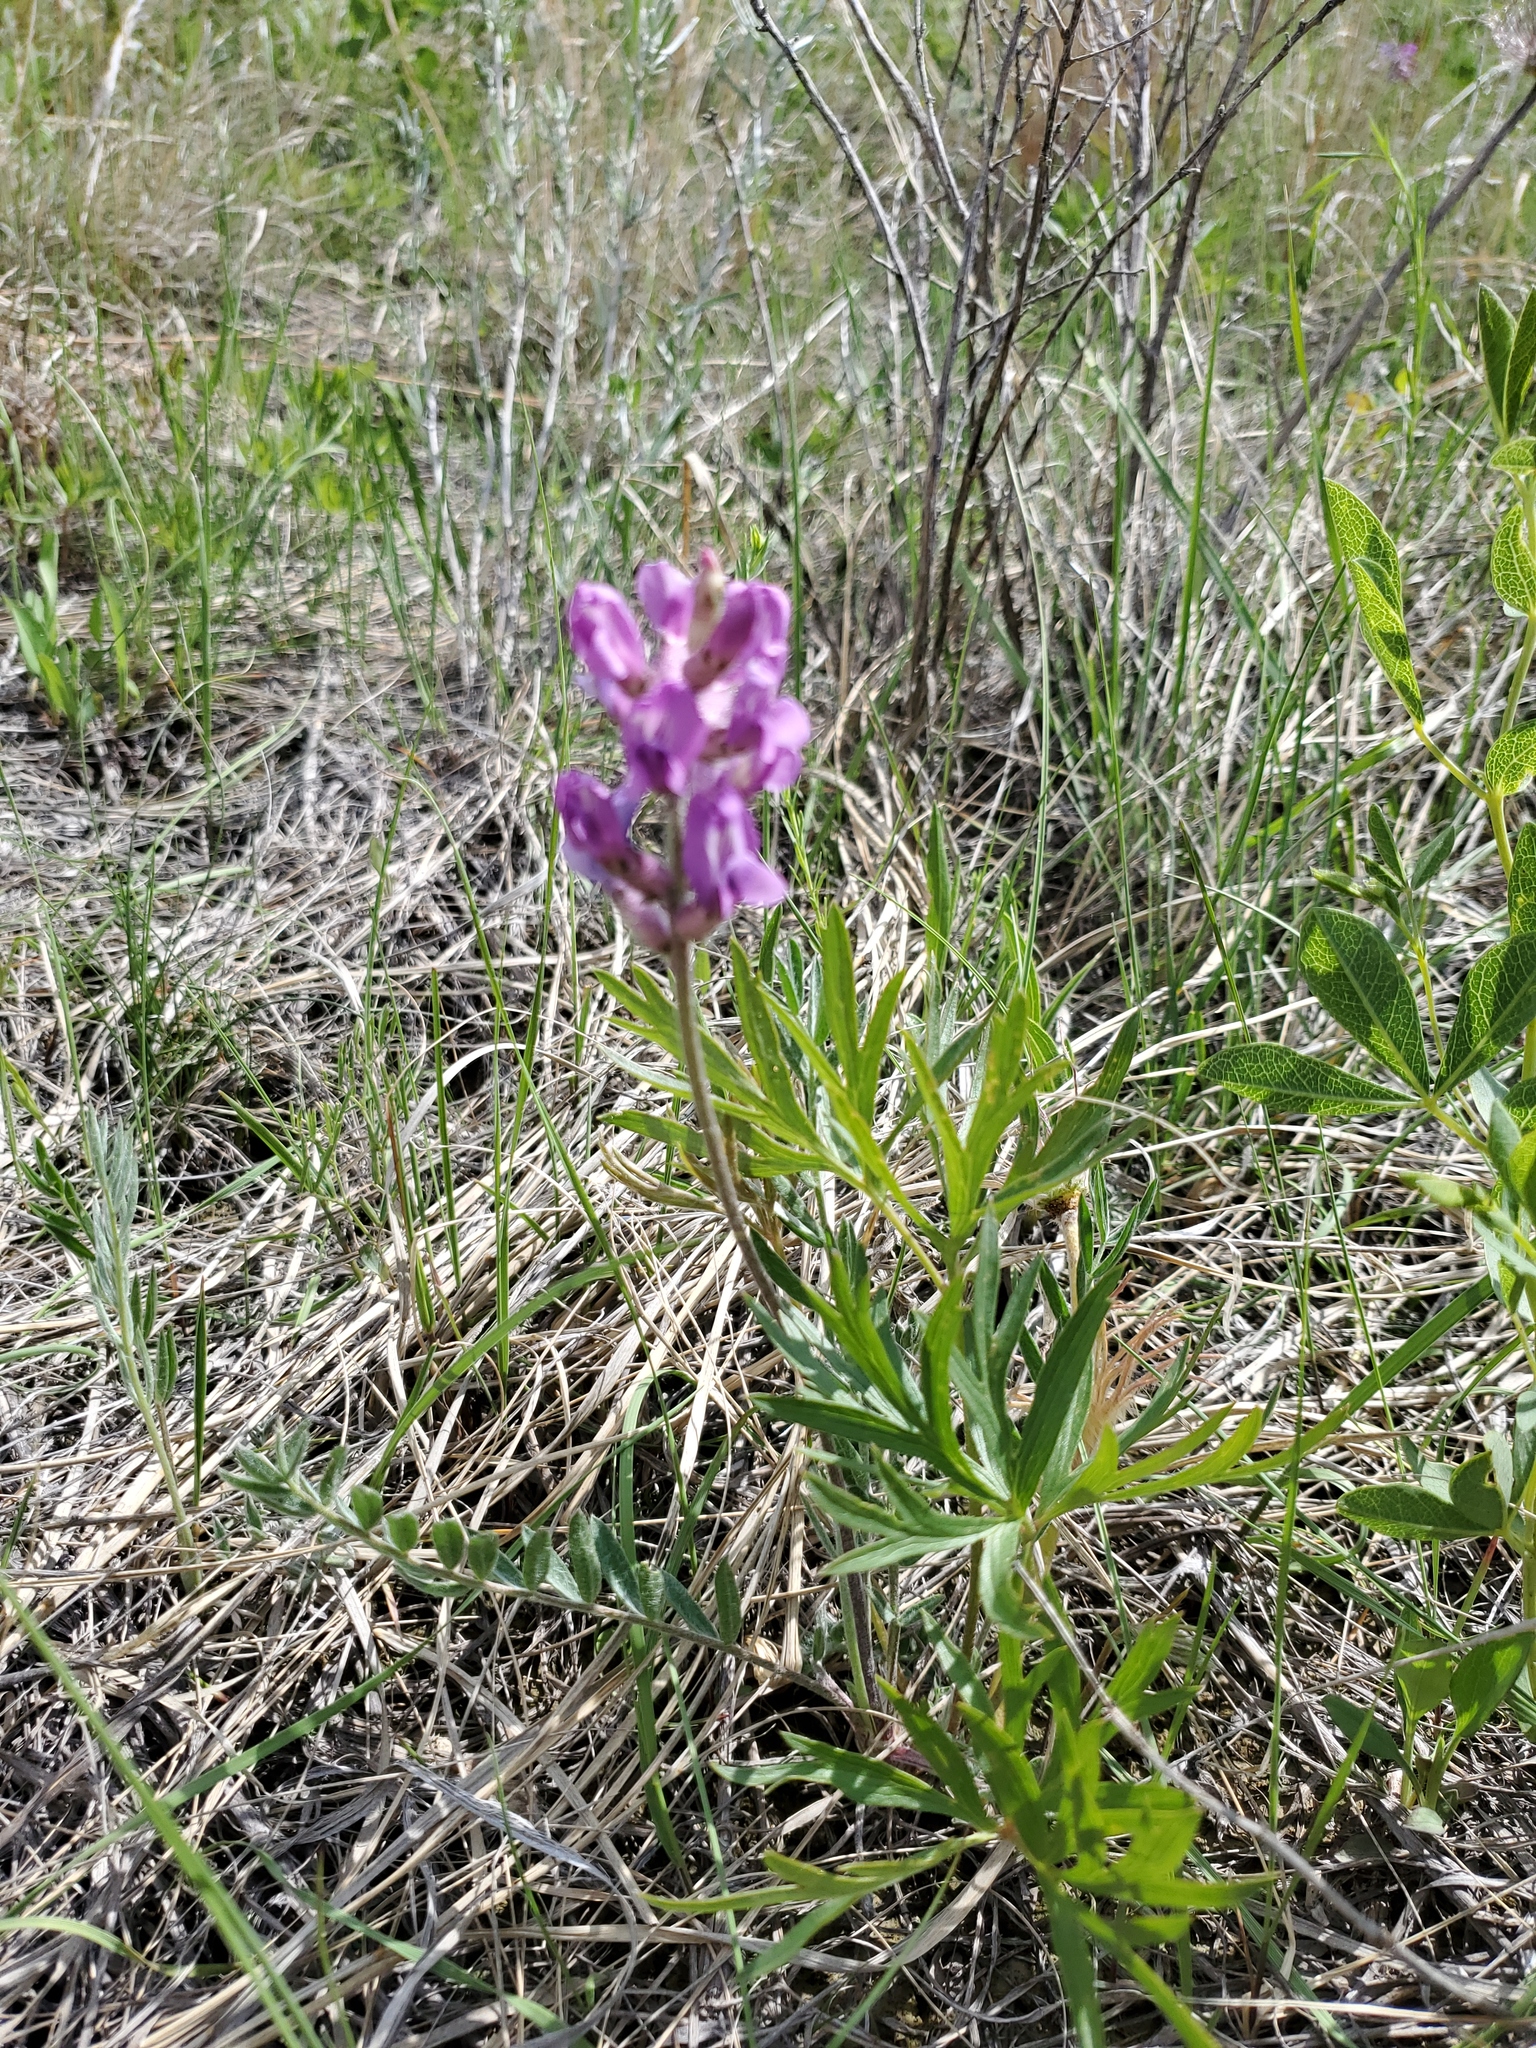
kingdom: Plantae
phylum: Tracheophyta
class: Magnoliopsida
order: Fabales
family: Fabaceae
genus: Oxytropis
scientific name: Oxytropis lambertii
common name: Purple locoweed
